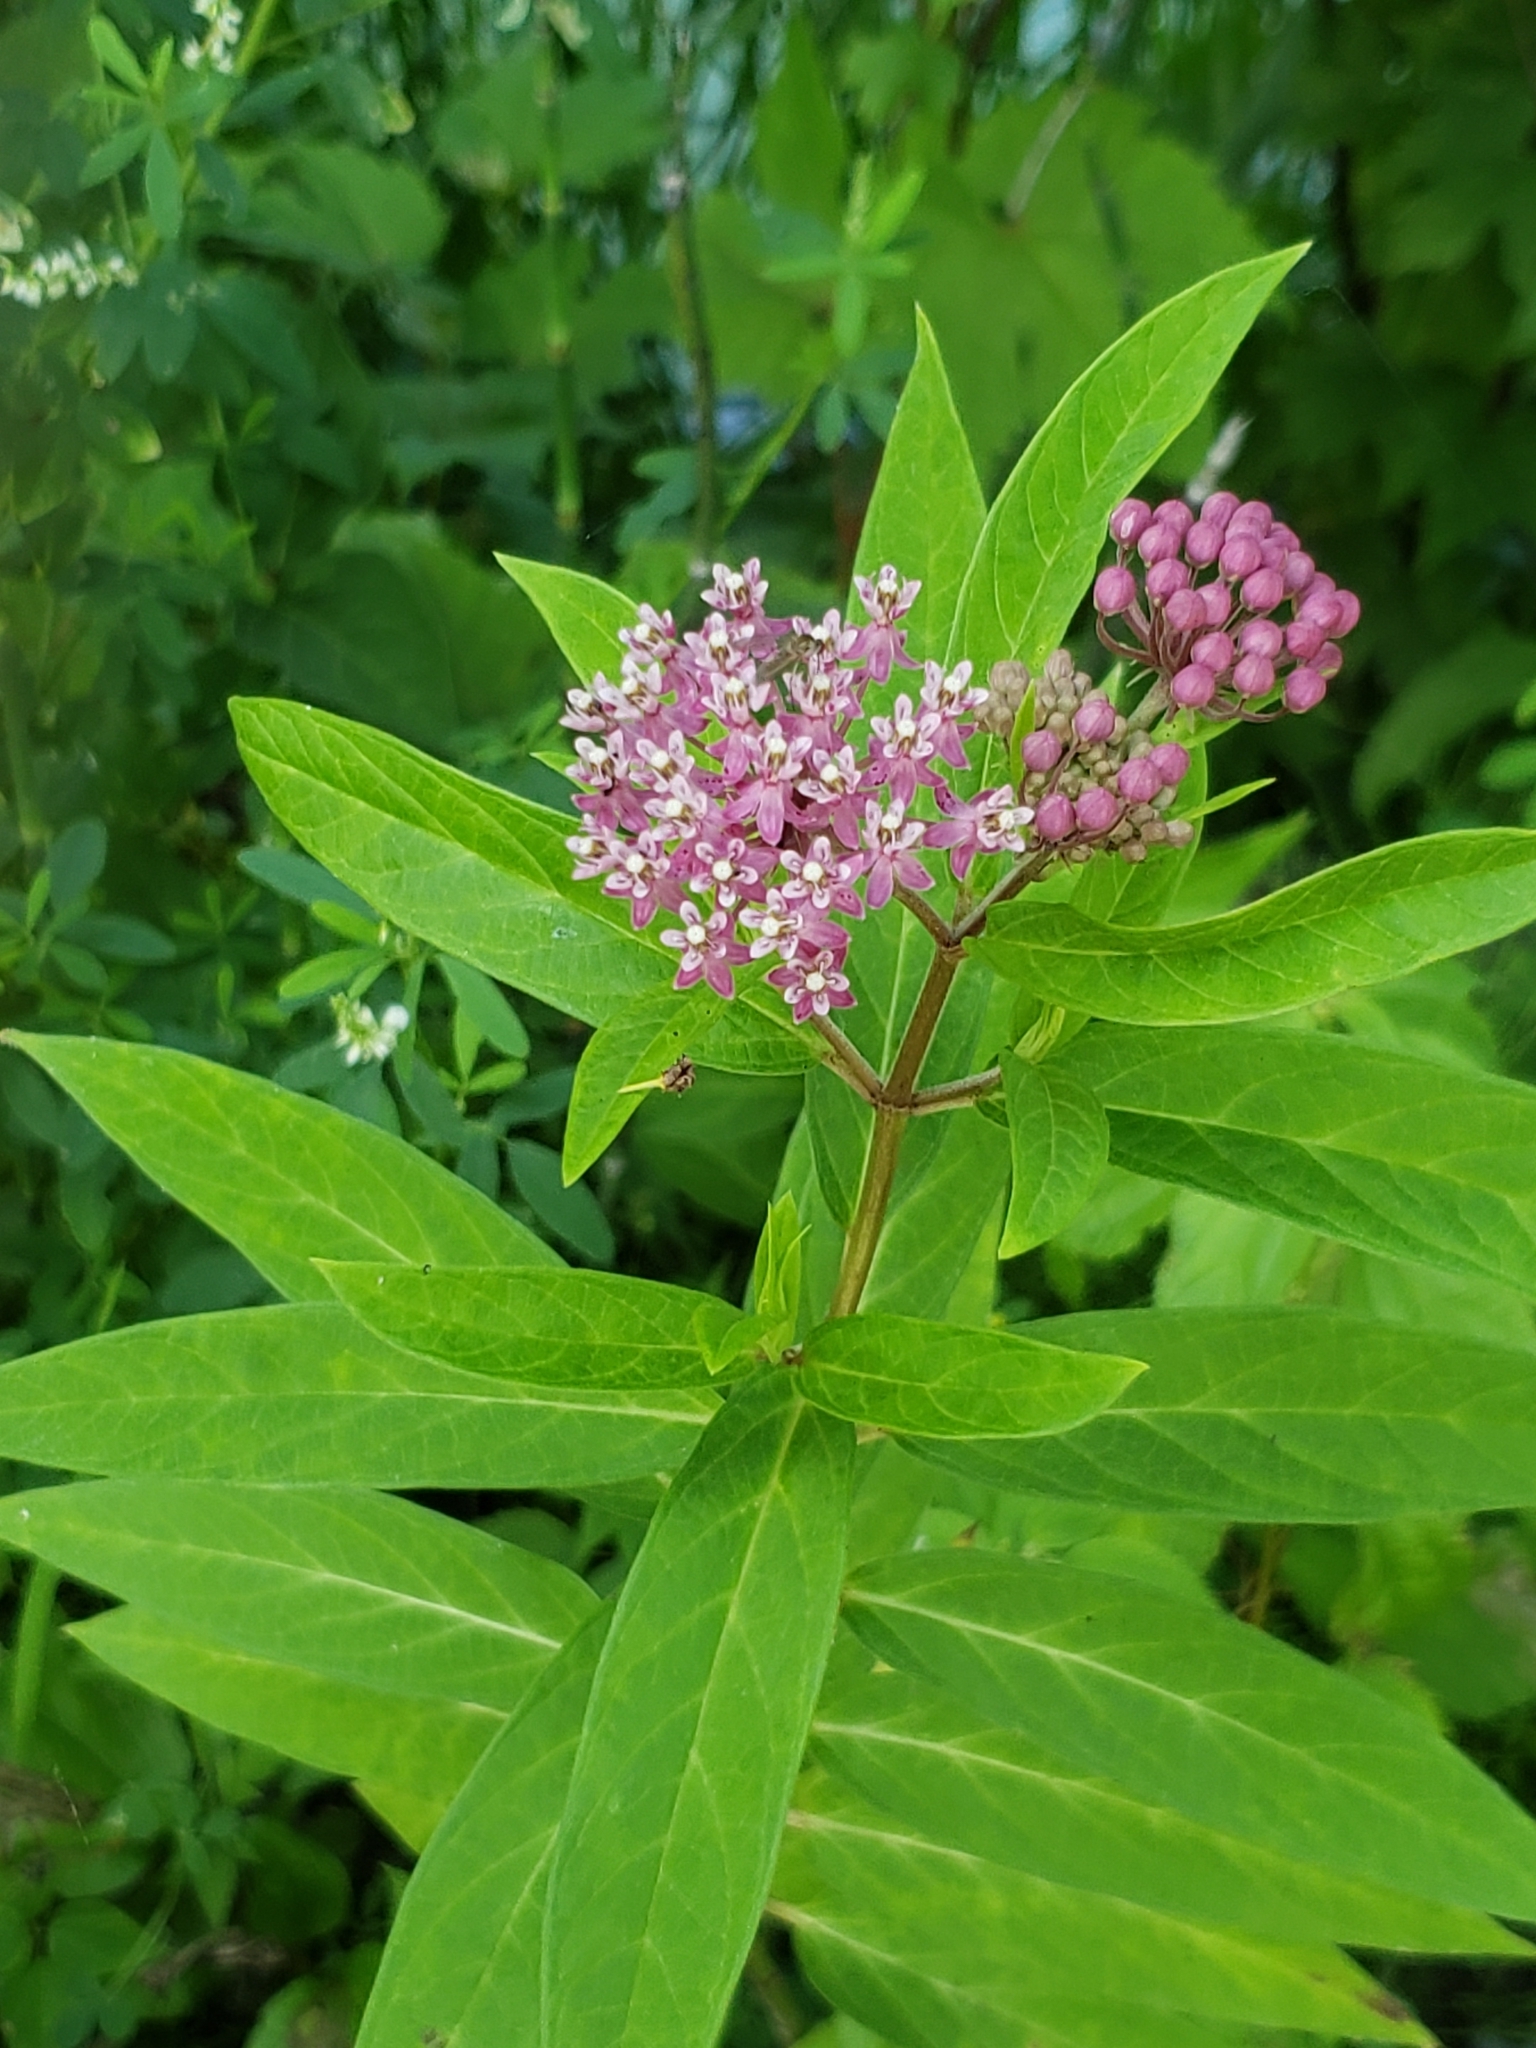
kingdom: Plantae
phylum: Tracheophyta
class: Magnoliopsida
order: Gentianales
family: Apocynaceae
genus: Asclepias
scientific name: Asclepias incarnata
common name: Swamp milkweed
